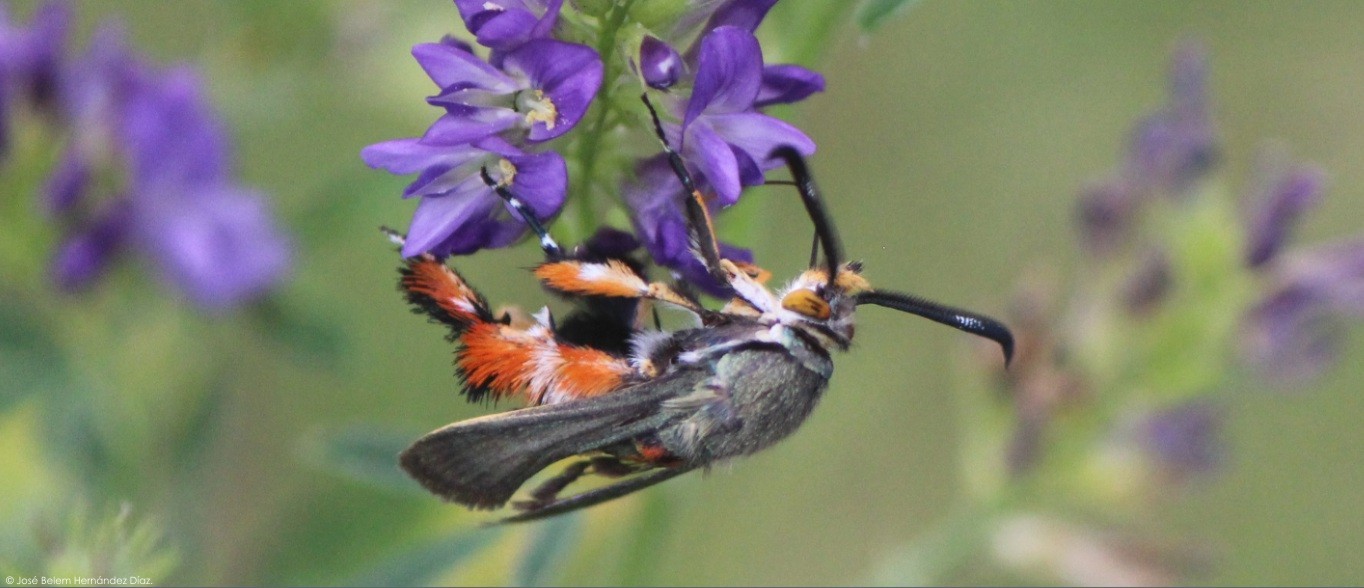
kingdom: Animalia
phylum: Arthropoda
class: Insecta
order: Lepidoptera
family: Sesiidae
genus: Eichlinia
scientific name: Eichlinia calabaza
